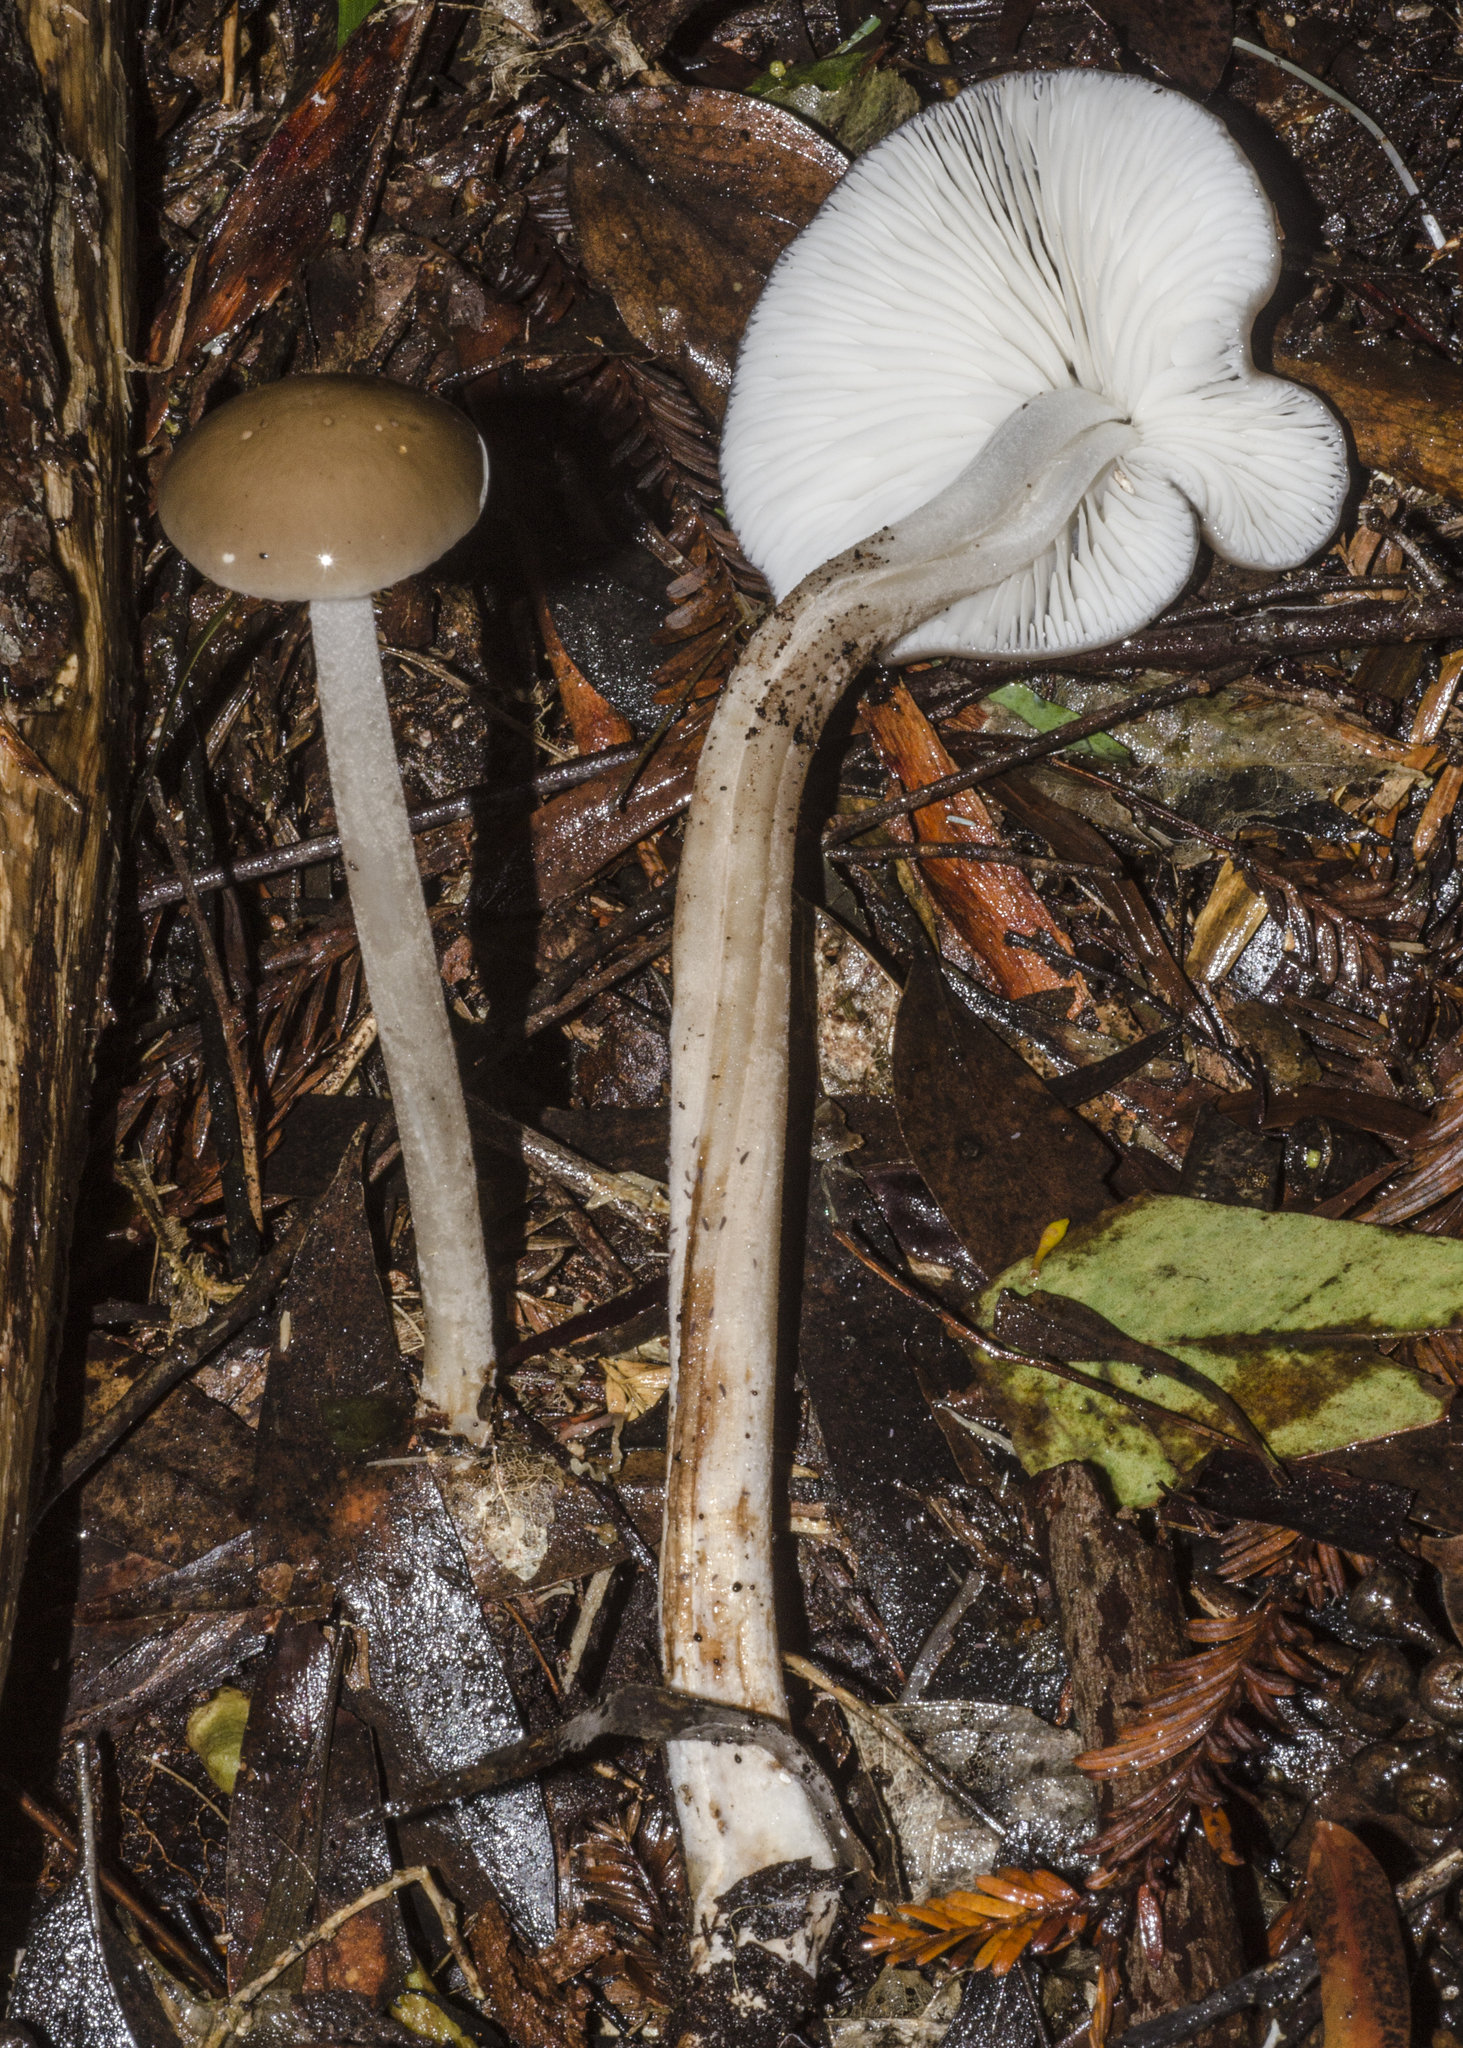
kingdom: Fungi
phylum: Basidiomycota
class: Agaricomycetes
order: Agaricales
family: Physalacriaceae
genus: Hymenopellis
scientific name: Hymenopellis mundroola
